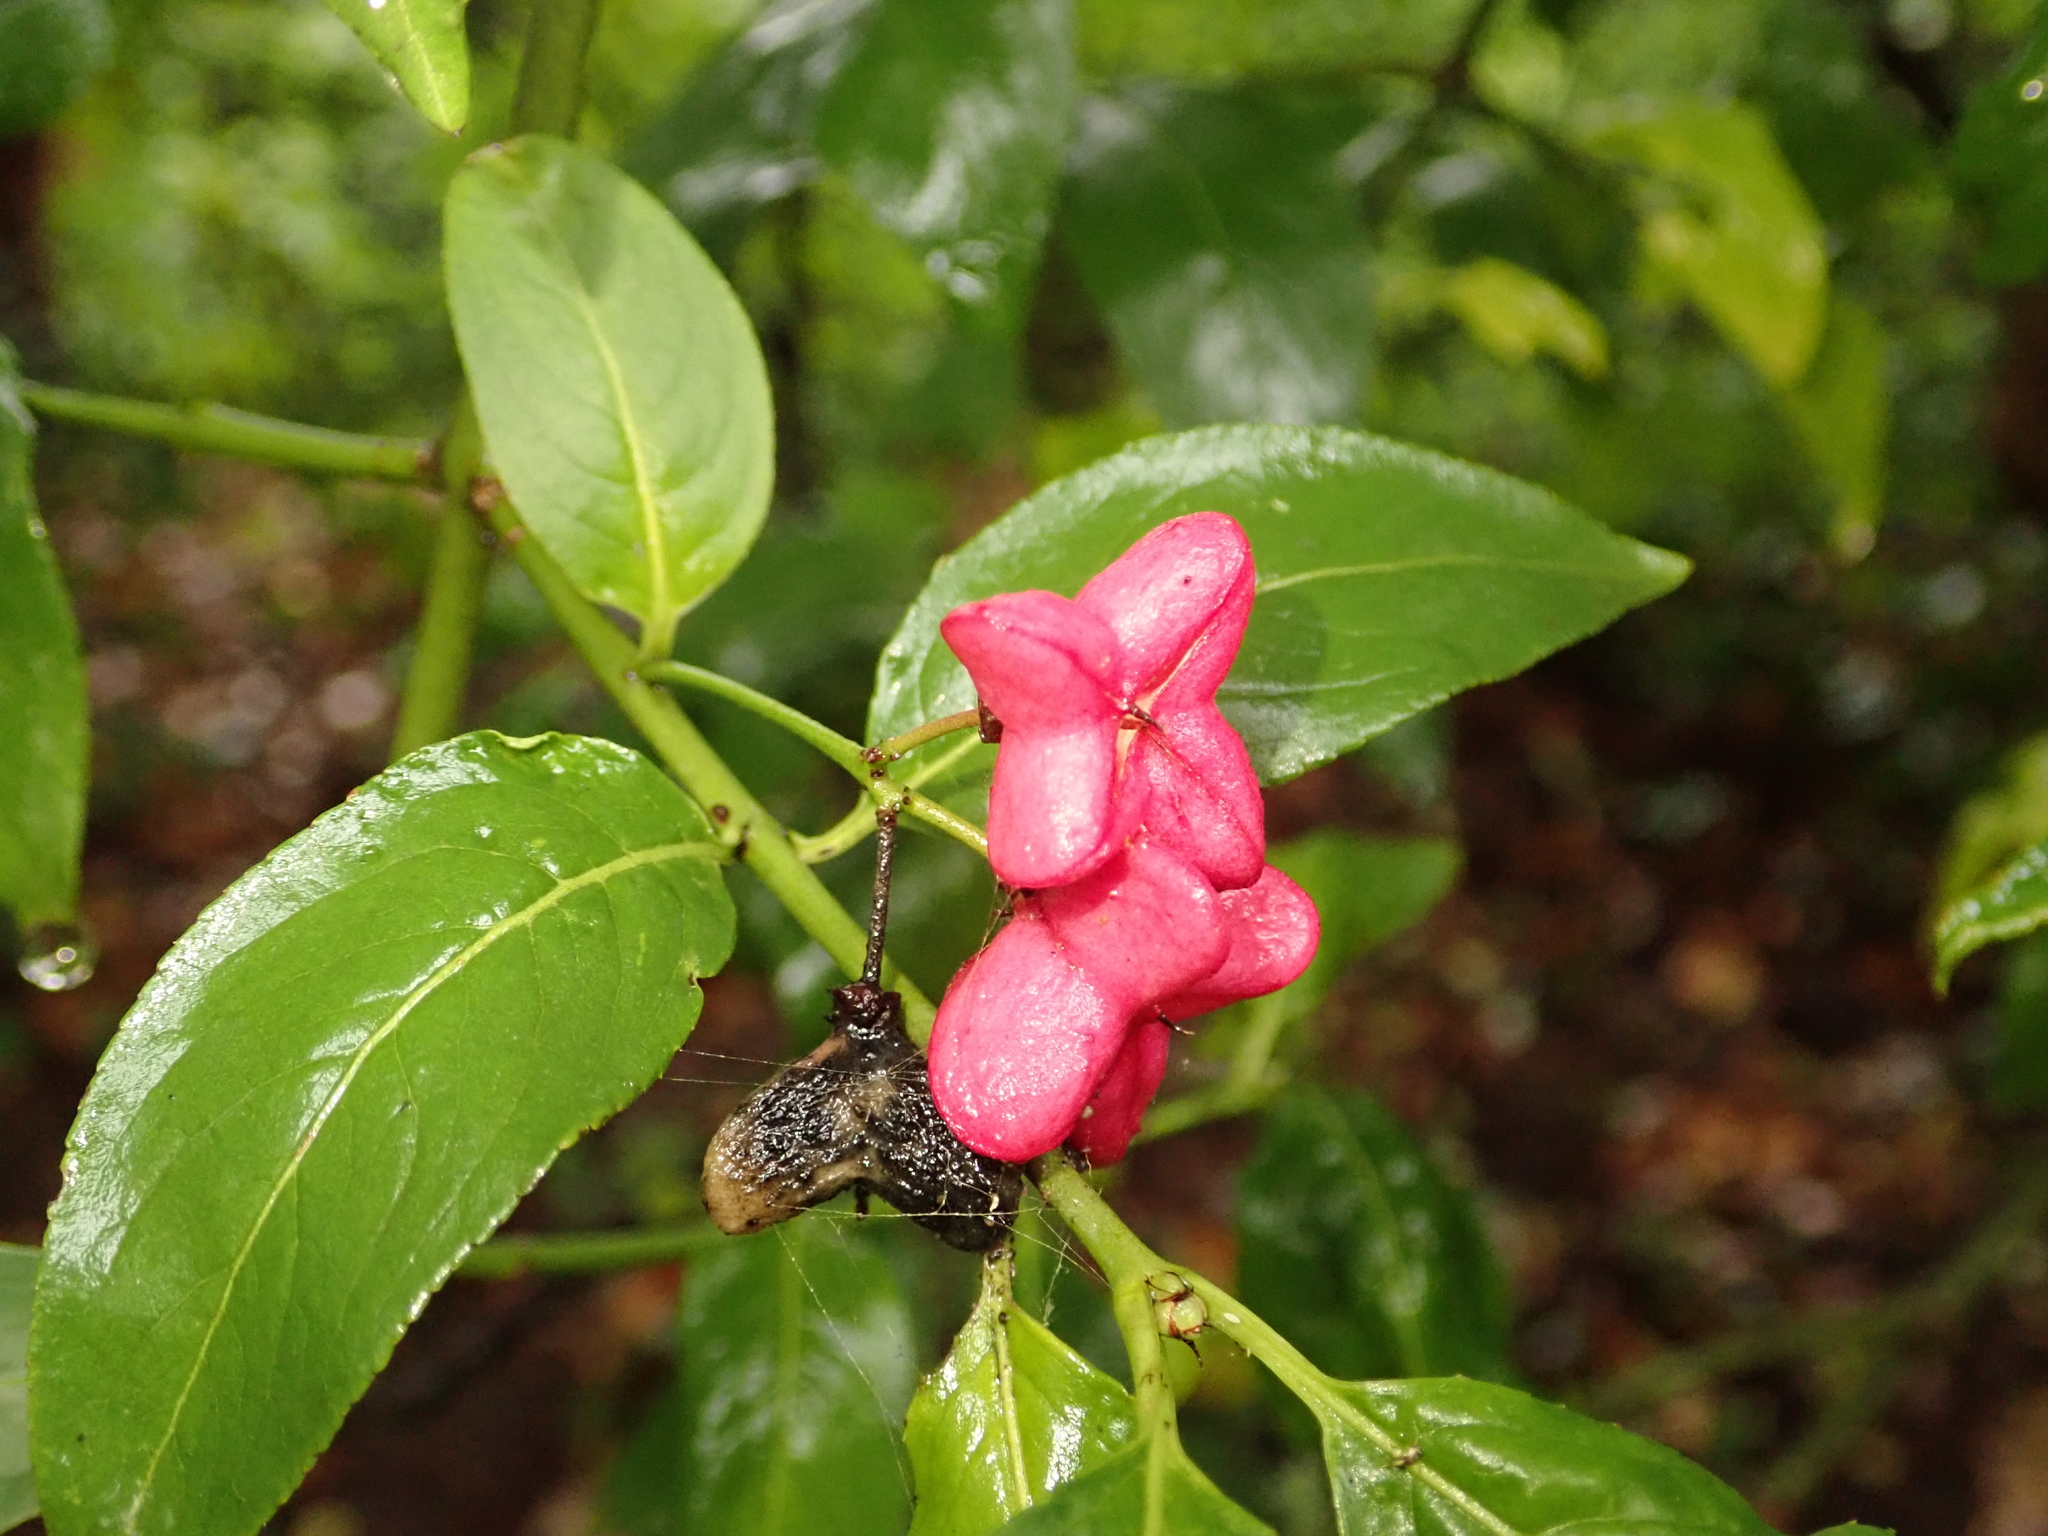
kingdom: Plantae
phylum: Tracheophyta
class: Magnoliopsida
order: Celastrales
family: Celastraceae
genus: Euonymus
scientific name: Euonymus europaeus
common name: Spindle
